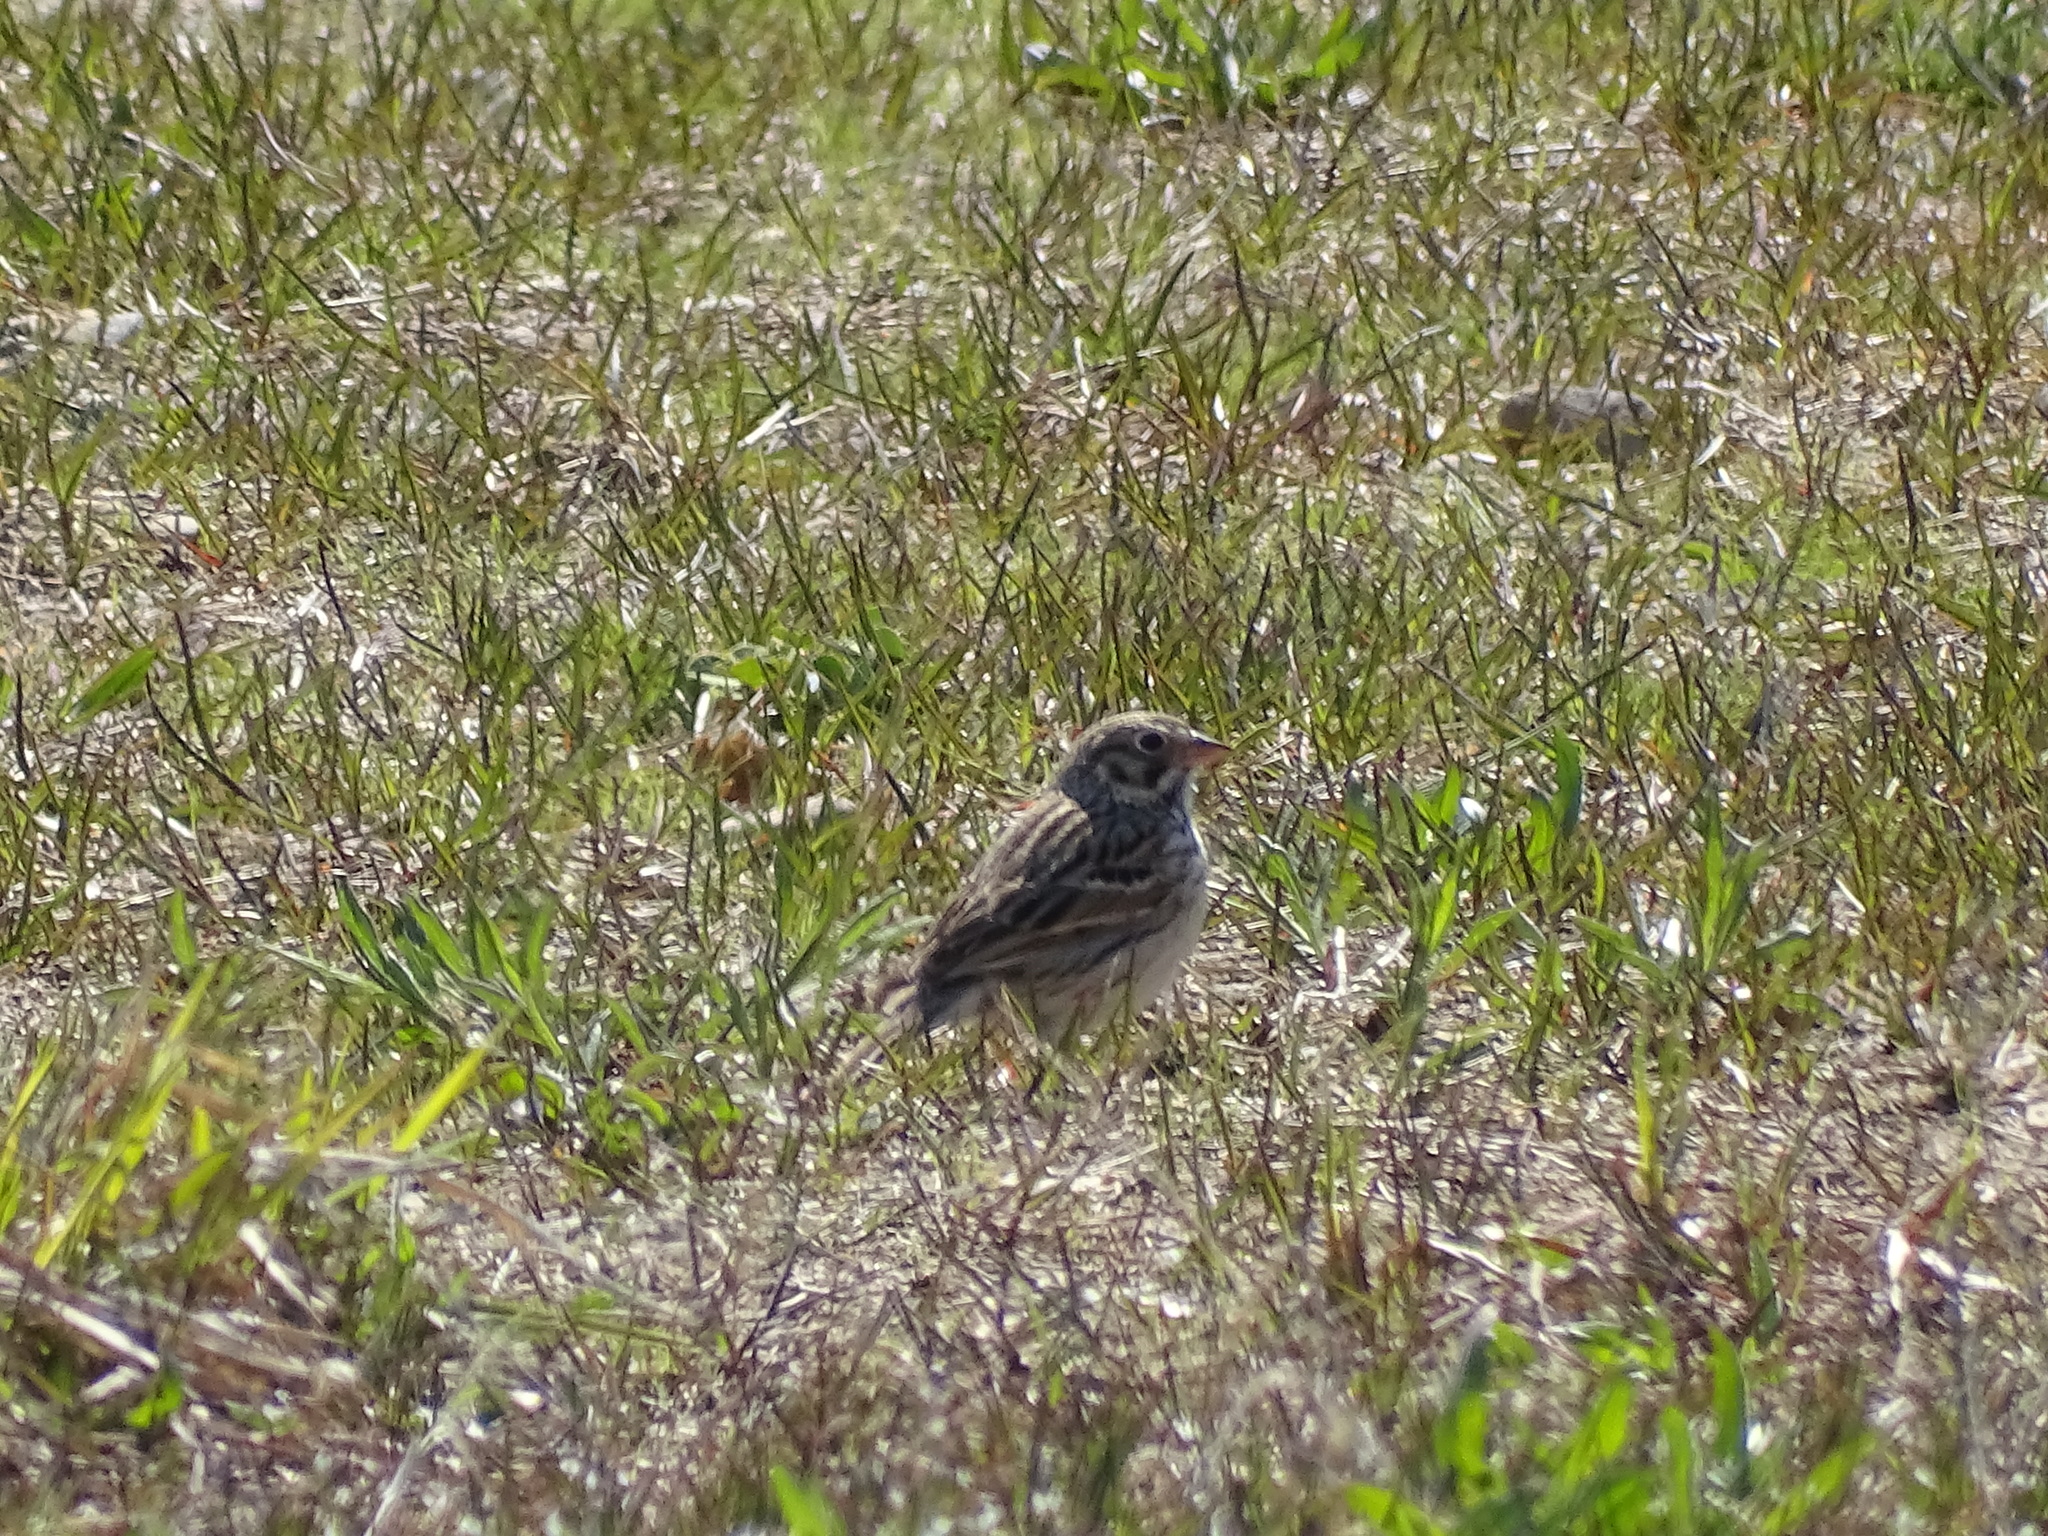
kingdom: Animalia
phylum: Chordata
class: Aves
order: Passeriformes
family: Passerellidae
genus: Pooecetes
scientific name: Pooecetes gramineus
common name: Vesper sparrow
